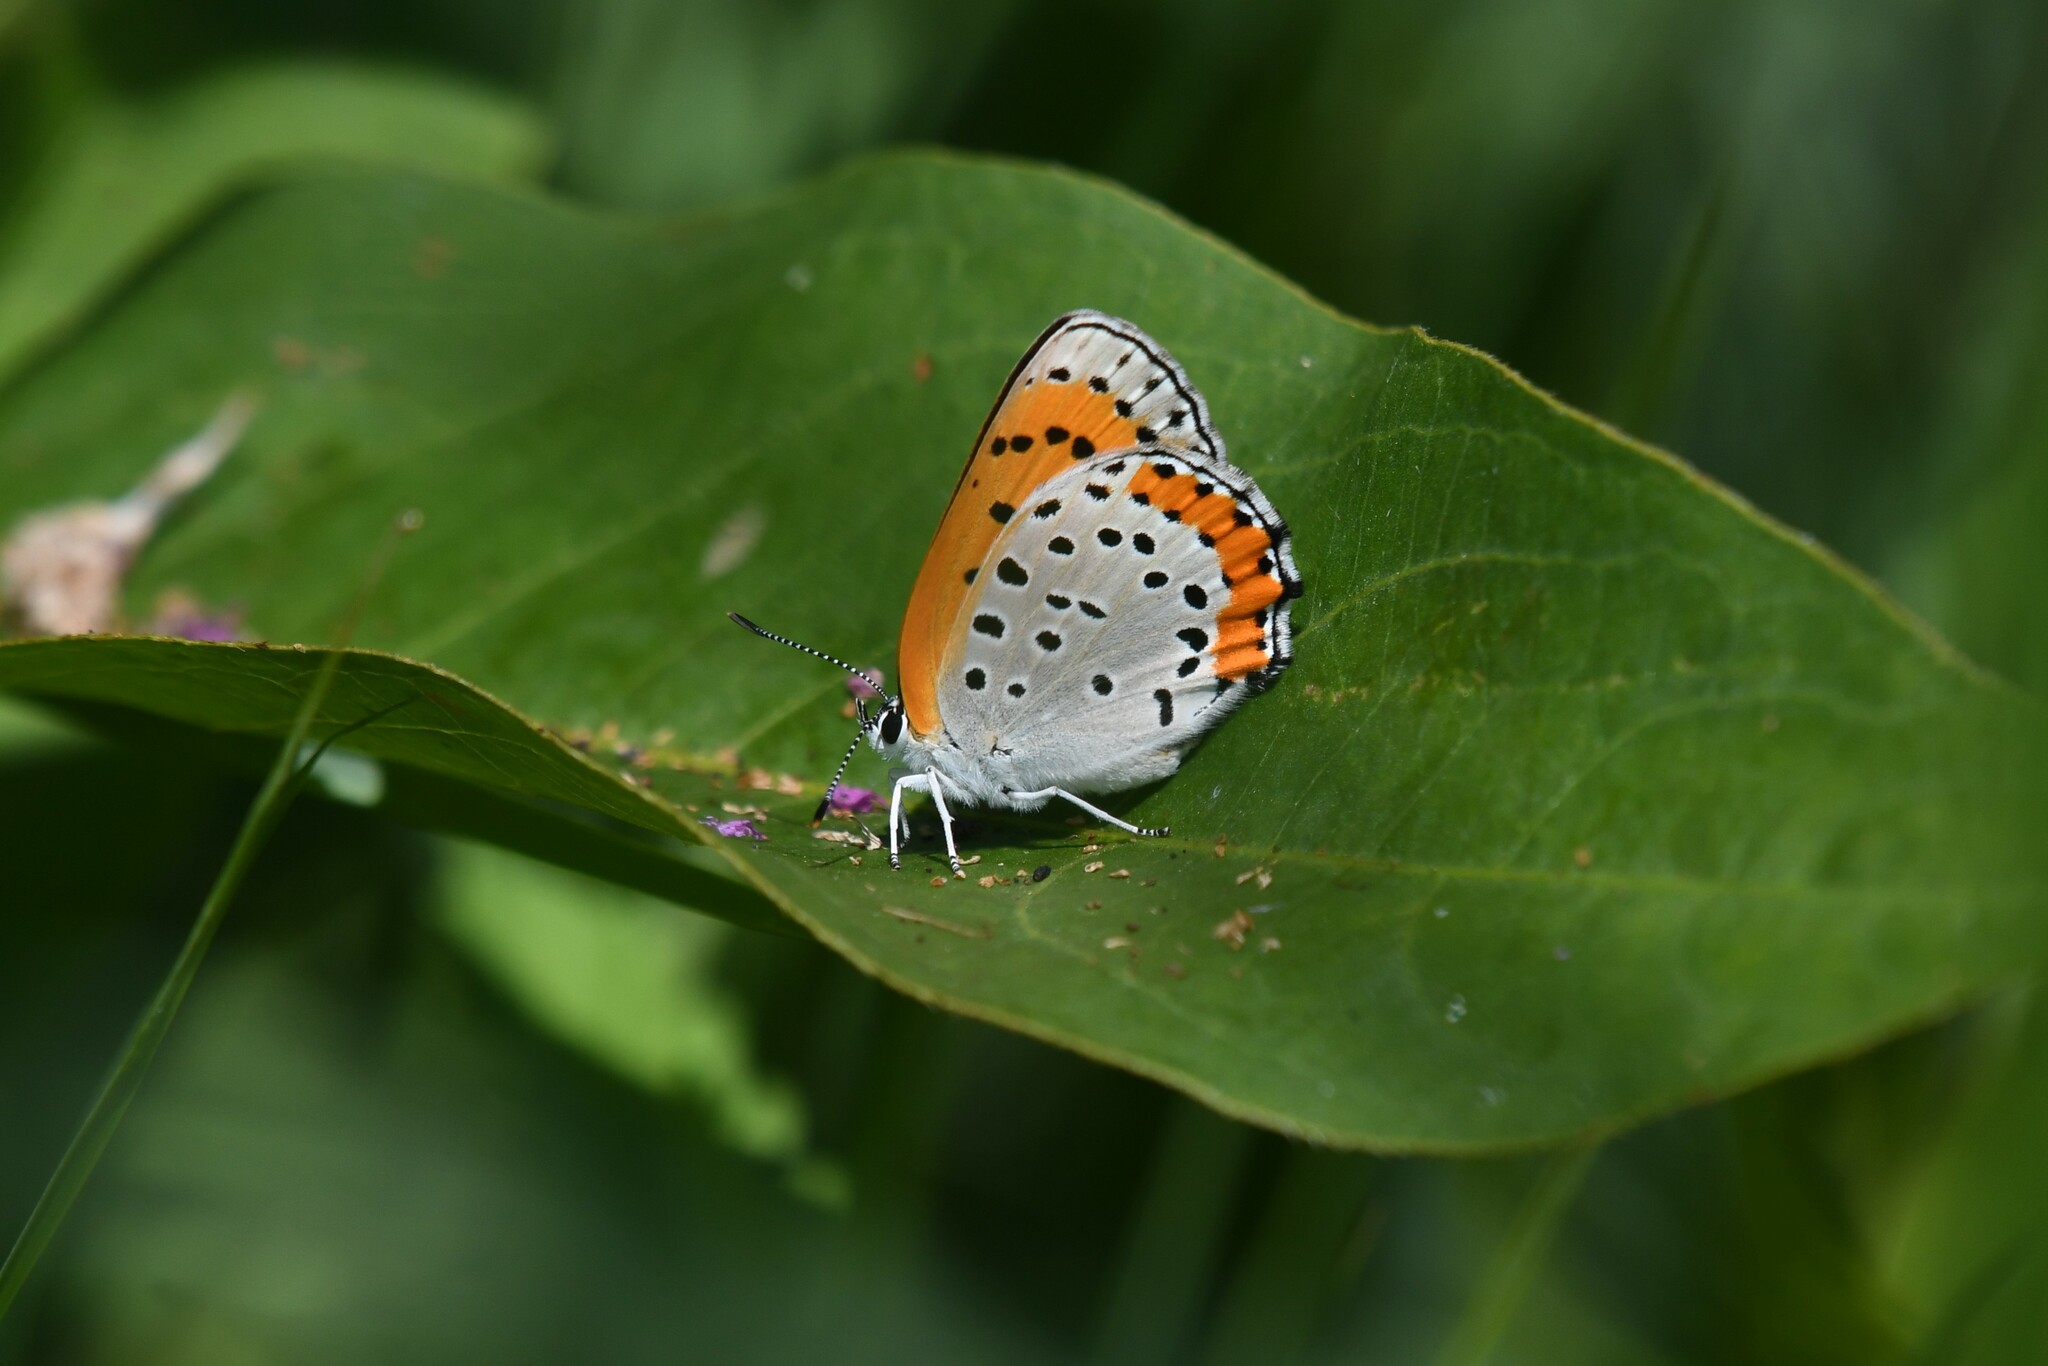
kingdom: Animalia
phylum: Arthropoda
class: Insecta
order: Lepidoptera
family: Lycaenidae
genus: Tharsalea
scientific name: Tharsalea hyllus
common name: Bronze copper
